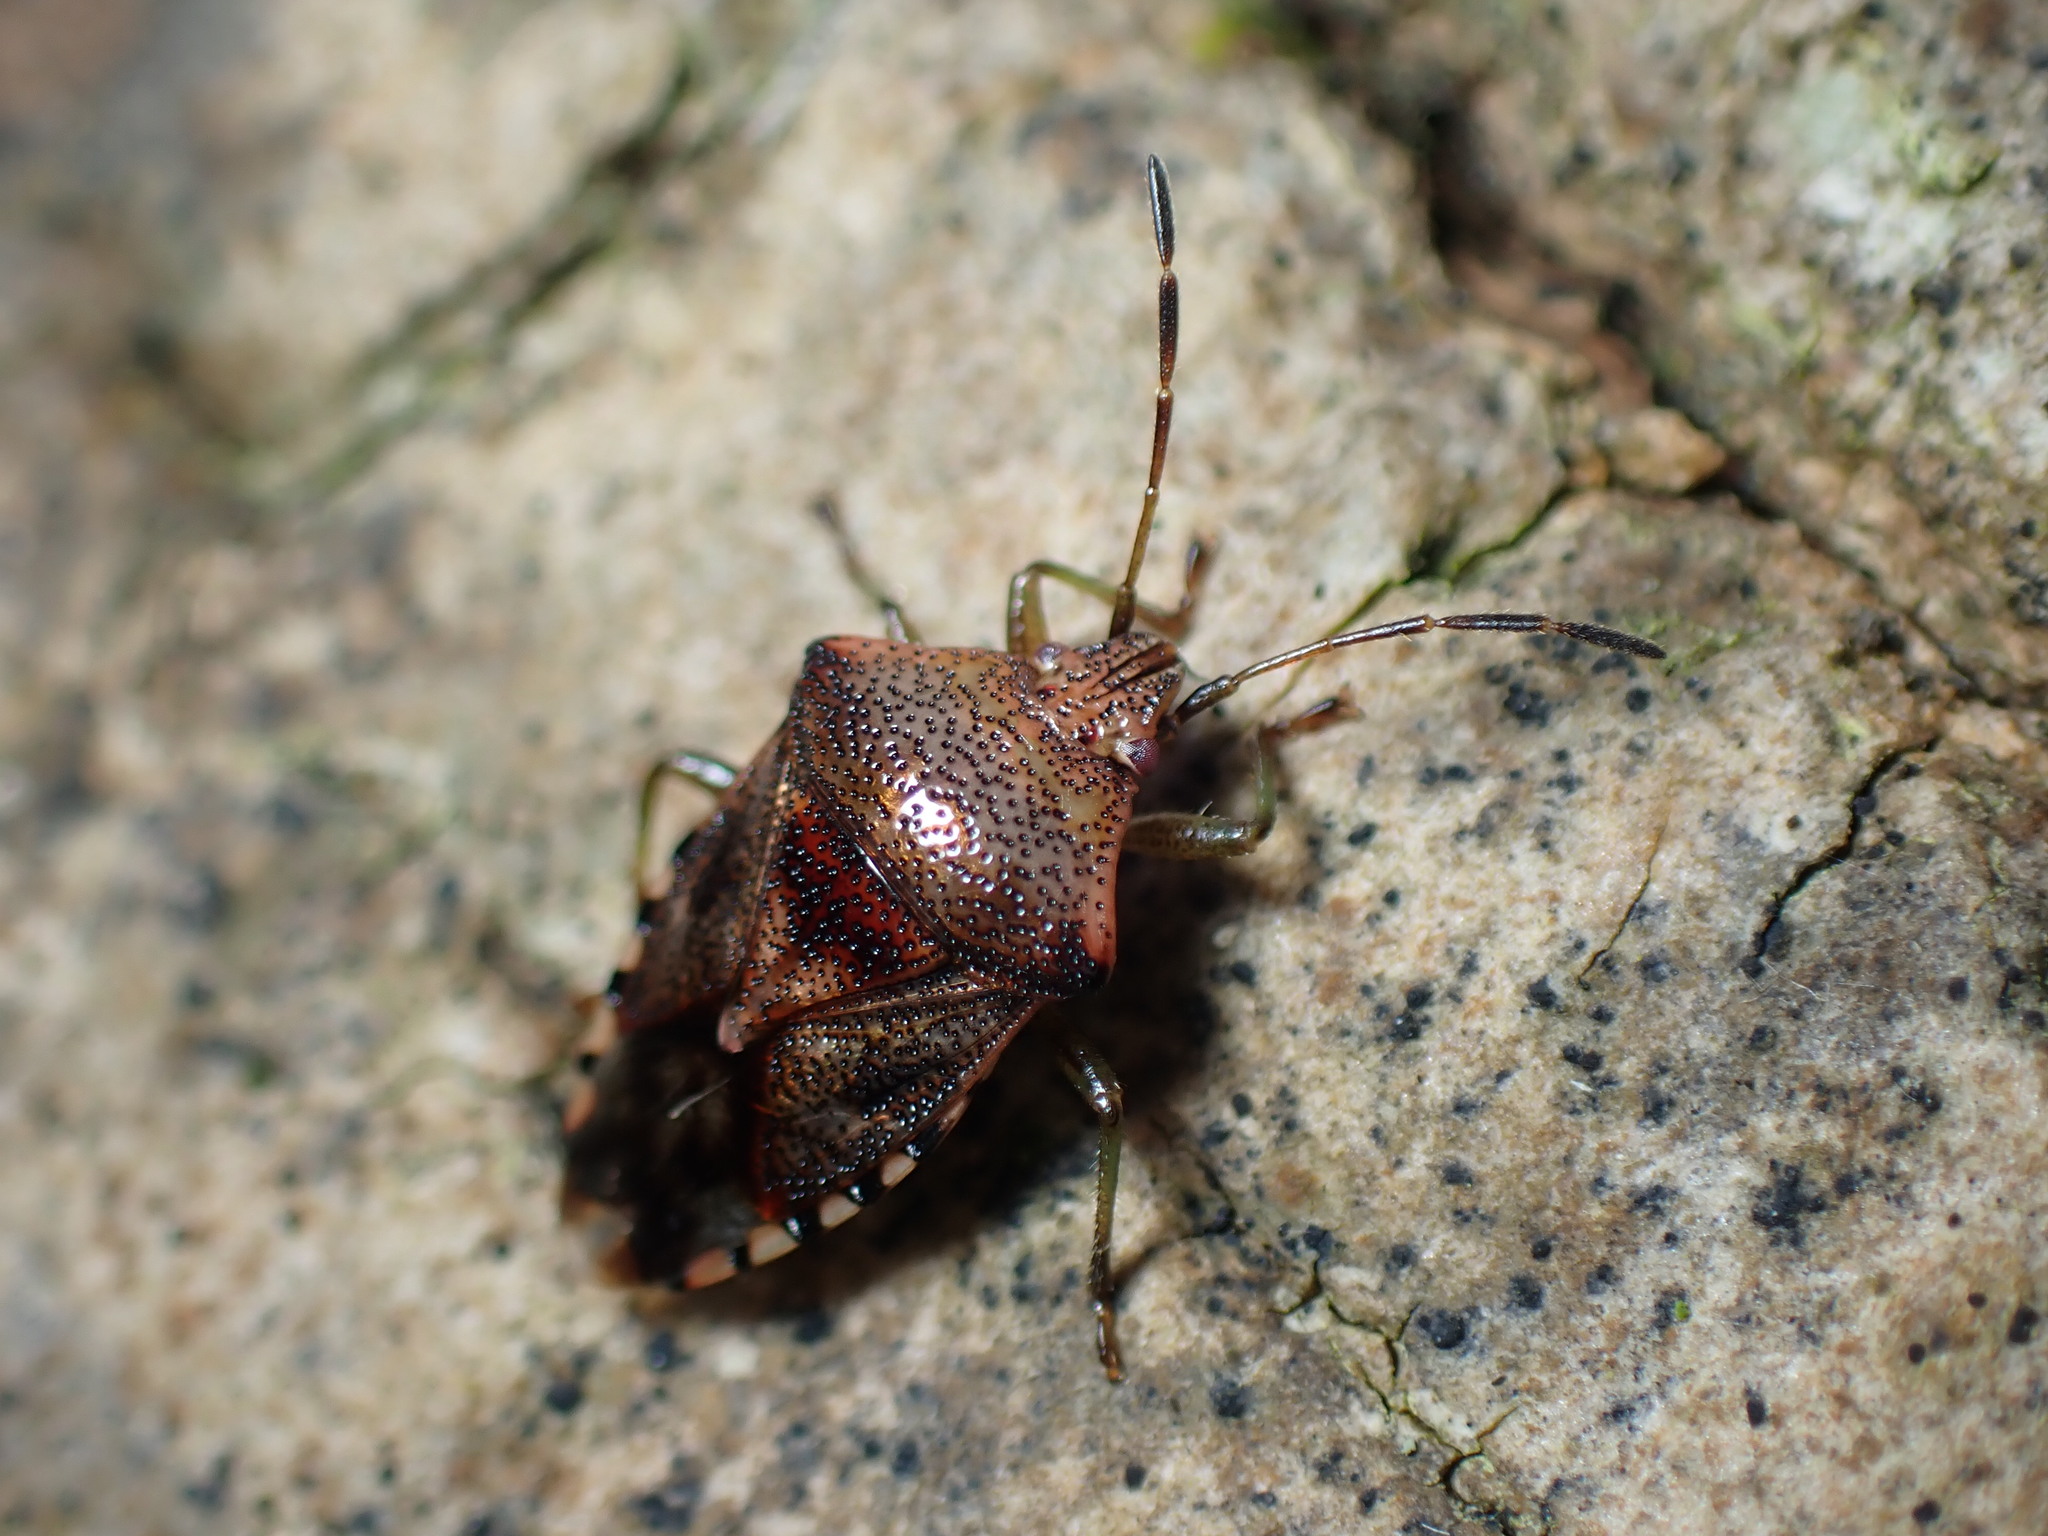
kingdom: Animalia
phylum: Arthropoda
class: Insecta
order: Hemiptera
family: Acanthosomatidae
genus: Elasmucha
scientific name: Elasmucha grisea
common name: Parent bug
